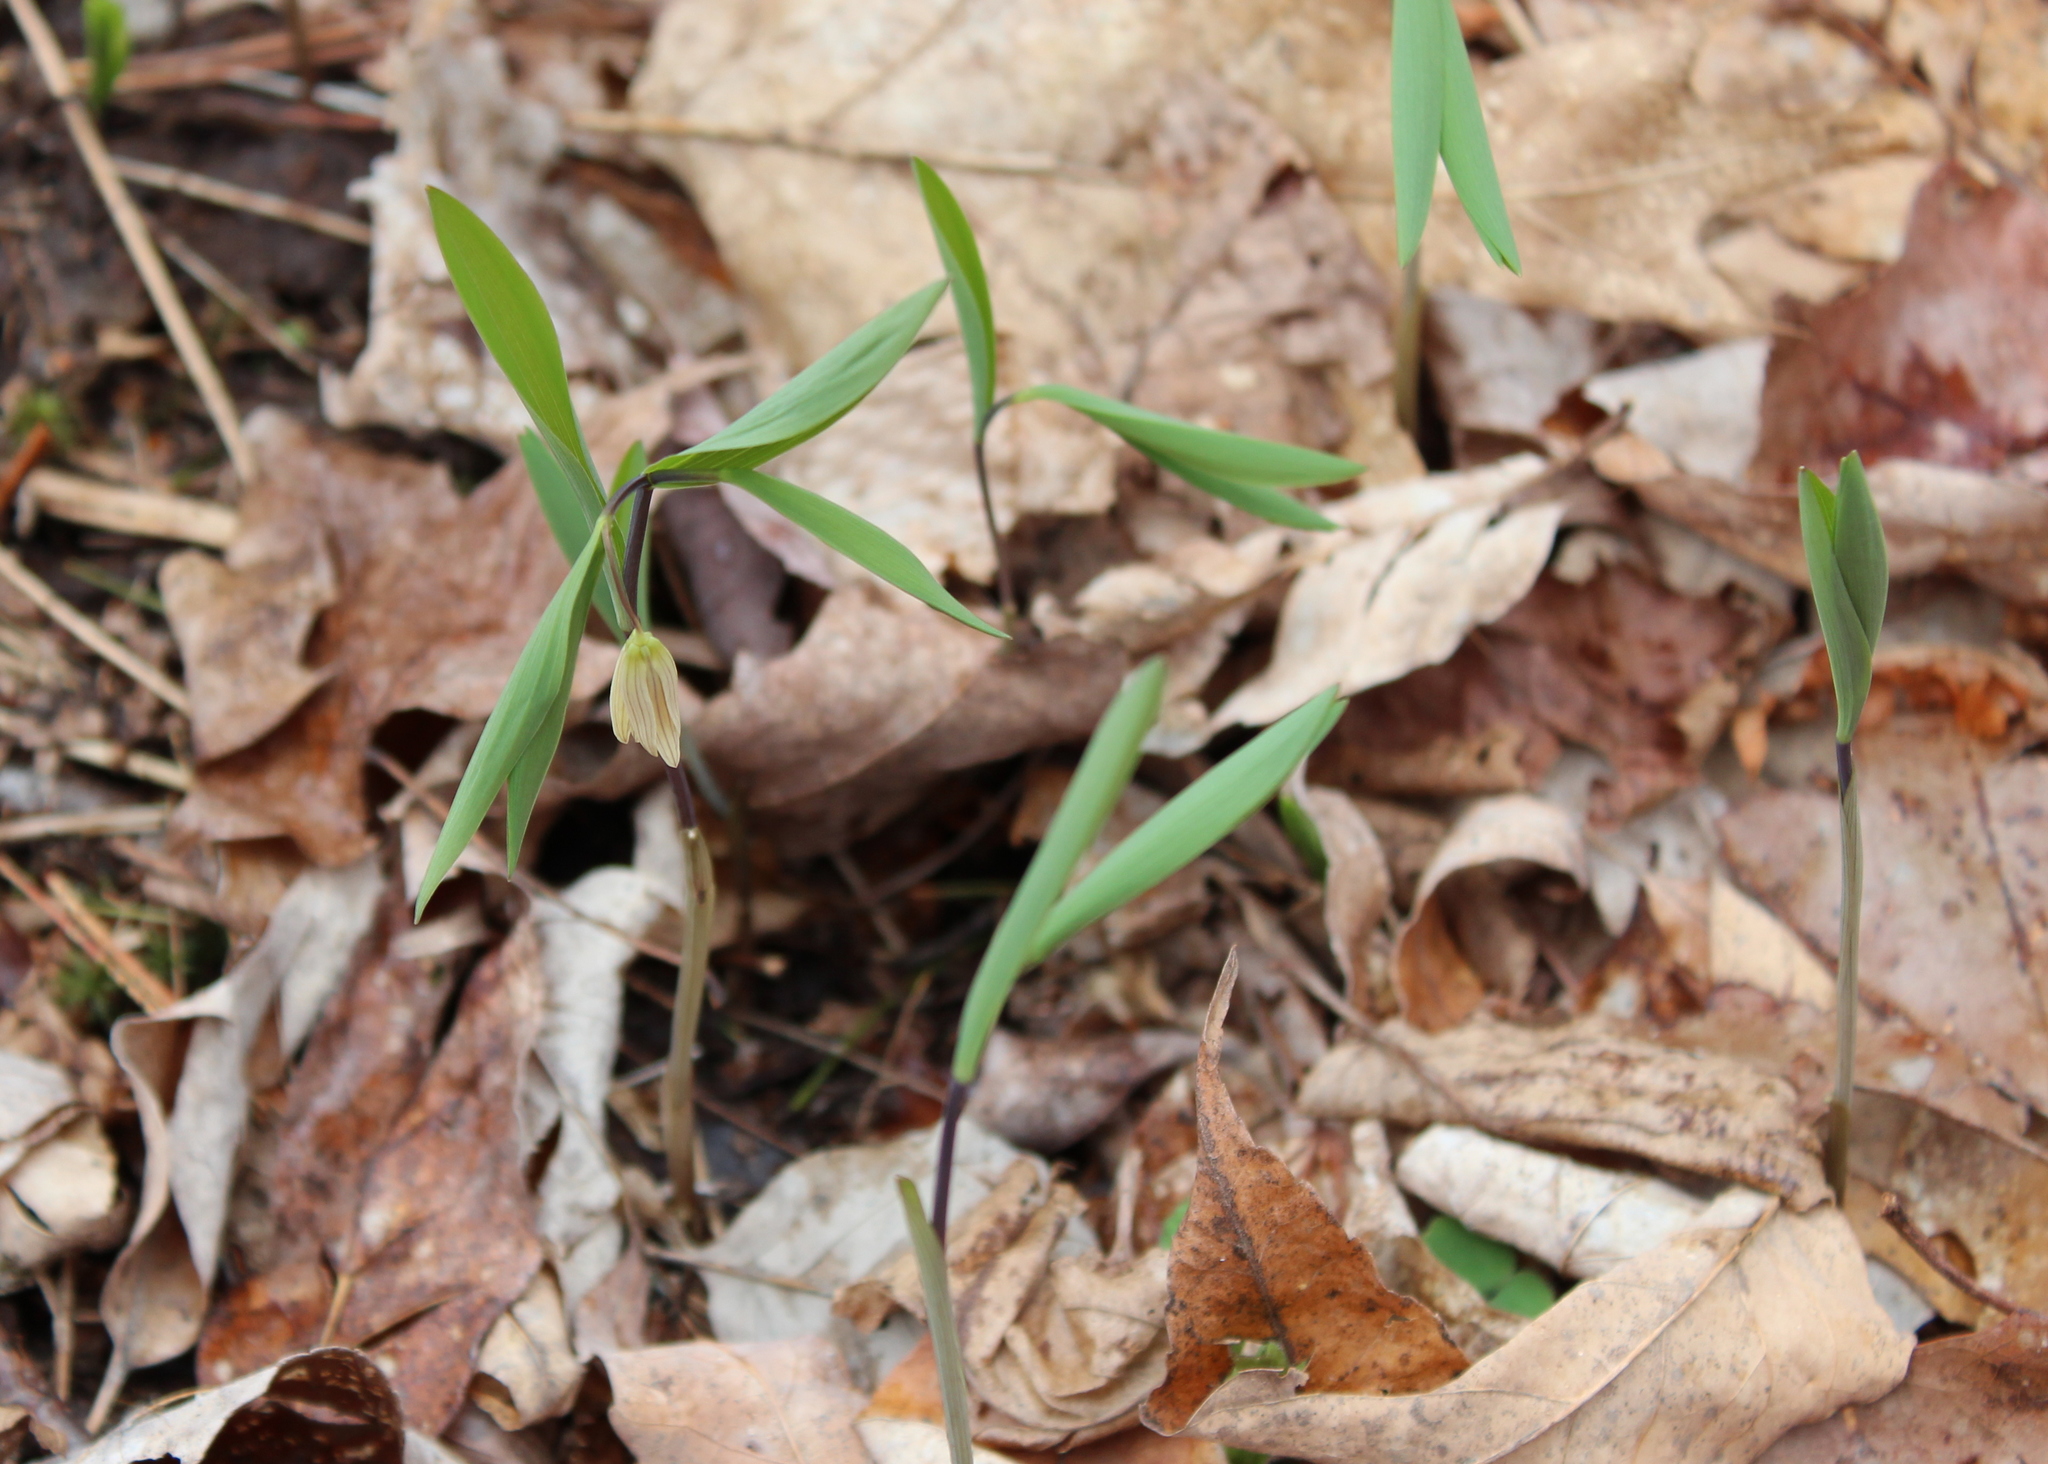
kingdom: Plantae
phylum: Tracheophyta
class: Liliopsida
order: Liliales
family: Colchicaceae
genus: Uvularia
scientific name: Uvularia sessilifolia
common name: Straw-lily
